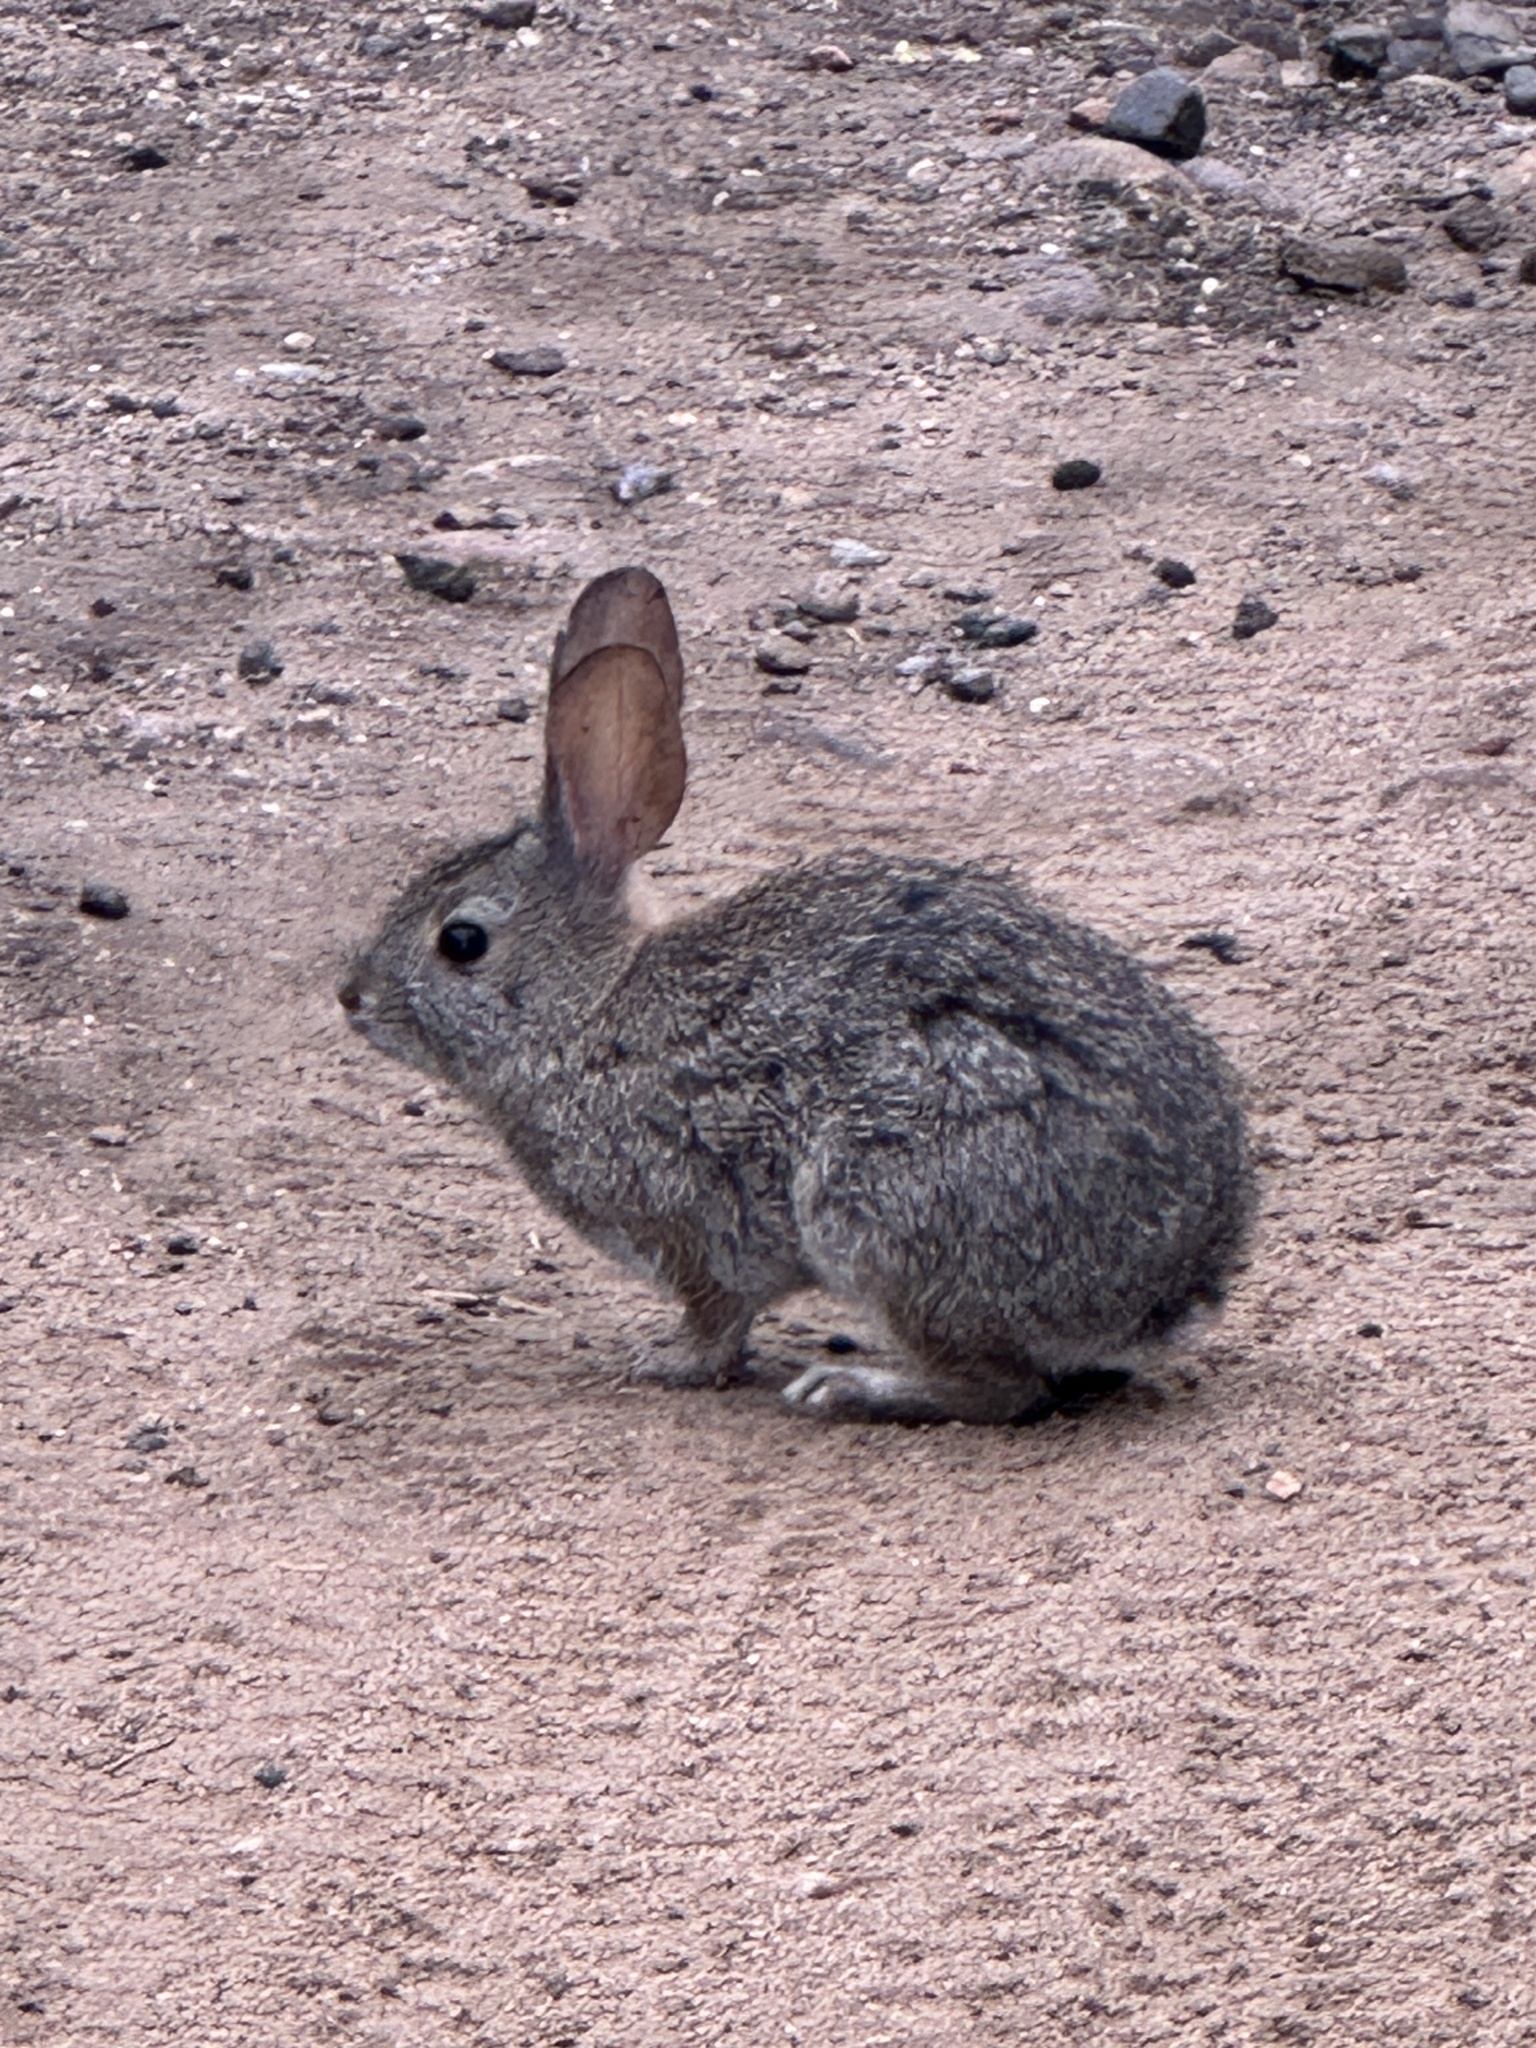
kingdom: Animalia
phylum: Chordata
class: Mammalia
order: Lagomorpha
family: Leporidae
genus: Sylvilagus
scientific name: Sylvilagus bachmani
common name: Brush rabbit
